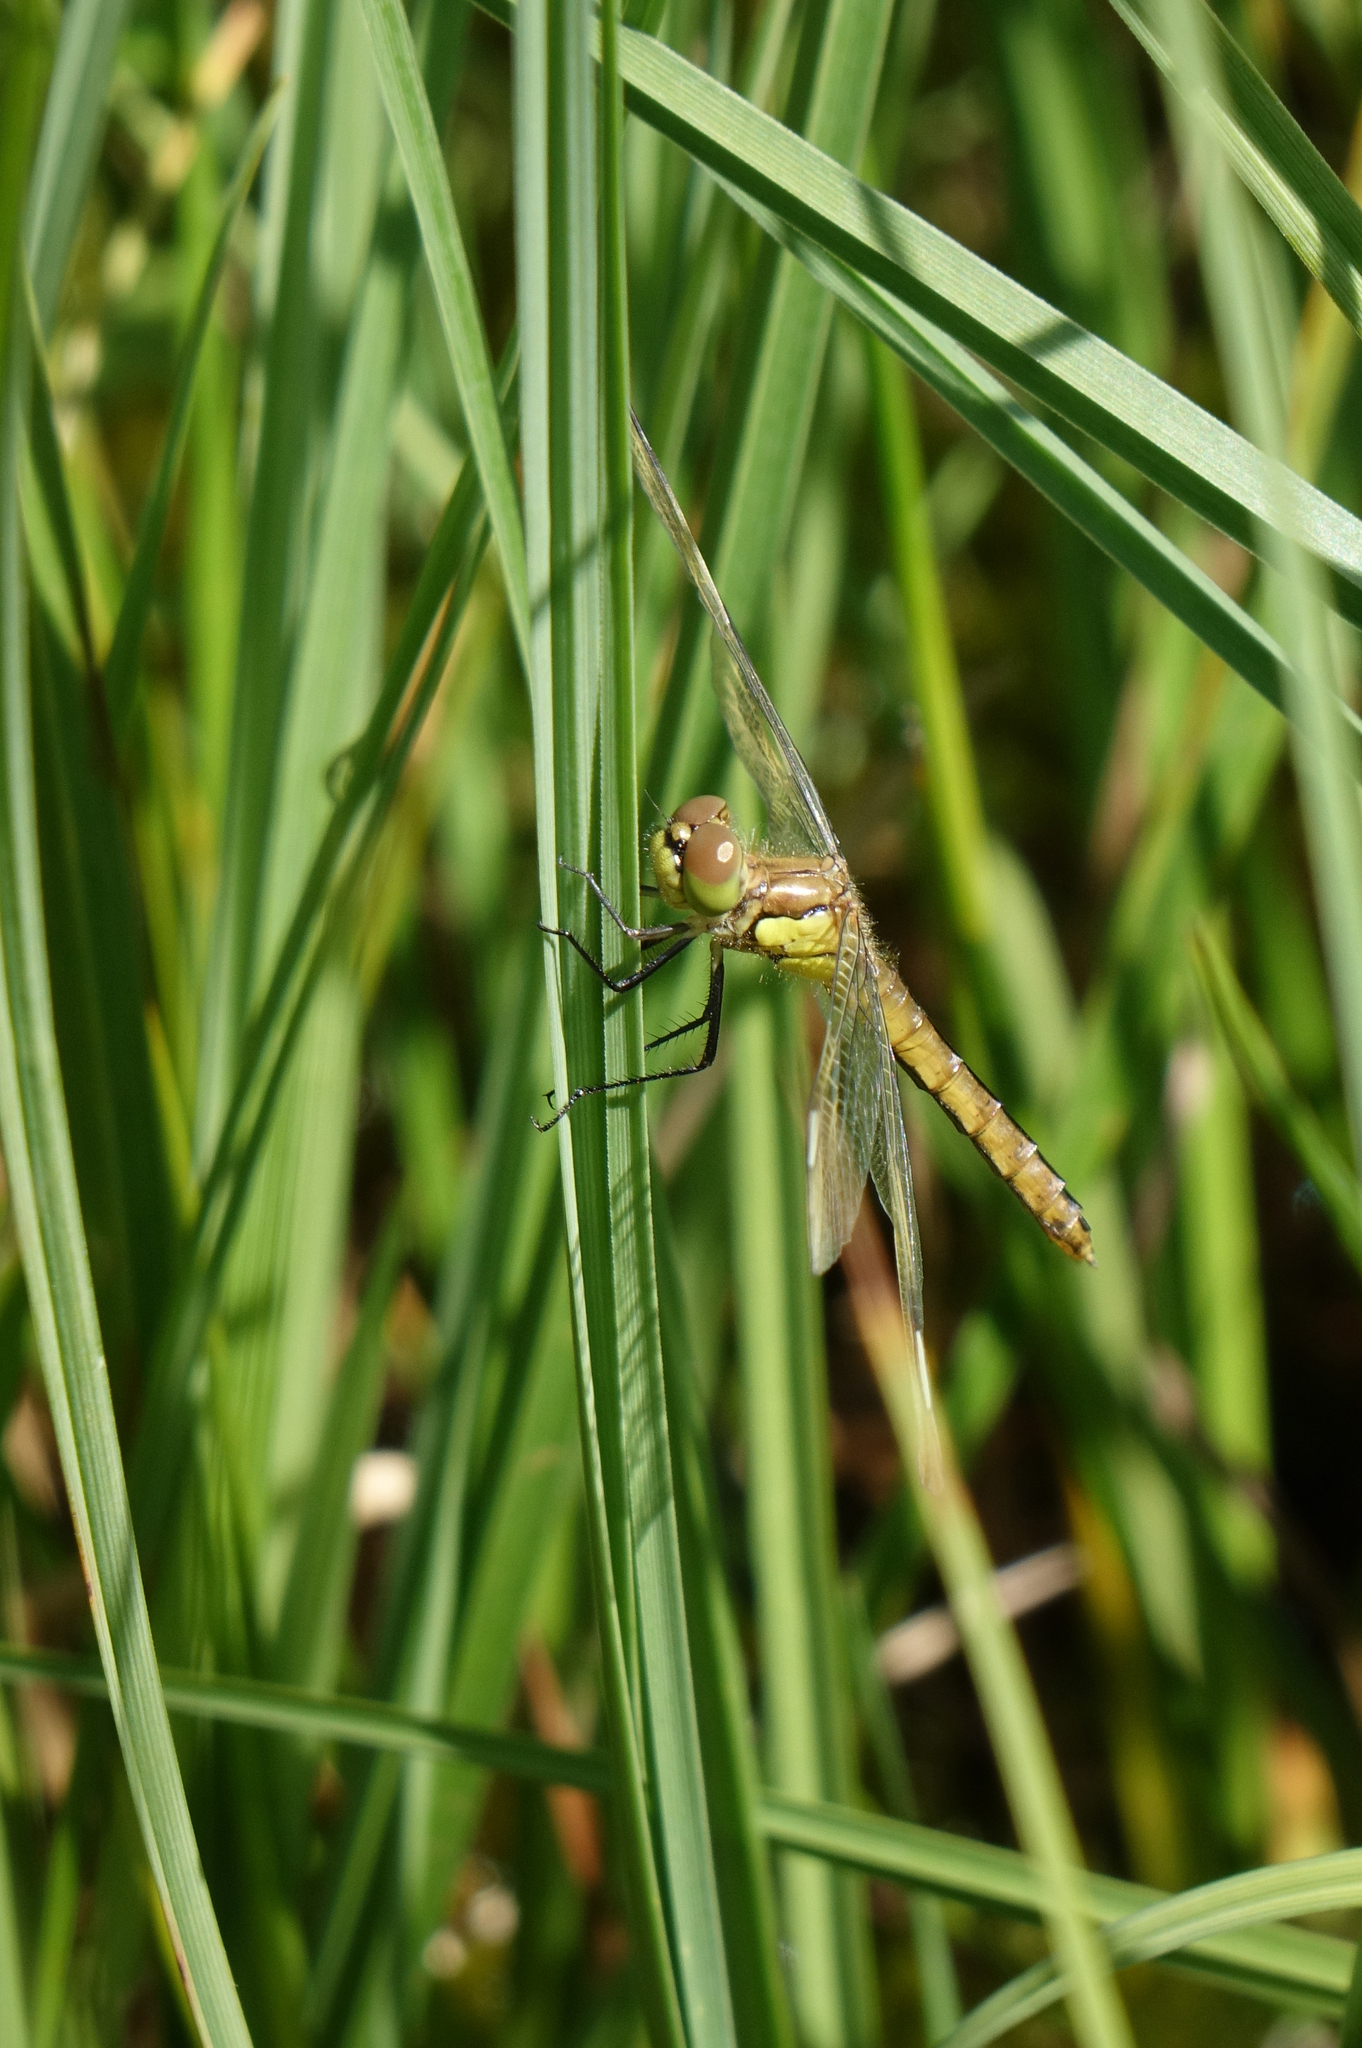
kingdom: Animalia
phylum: Arthropoda
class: Insecta
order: Odonata
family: Libellulidae
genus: Sympetrum
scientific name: Sympetrum pedemontanum
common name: Banded darter
